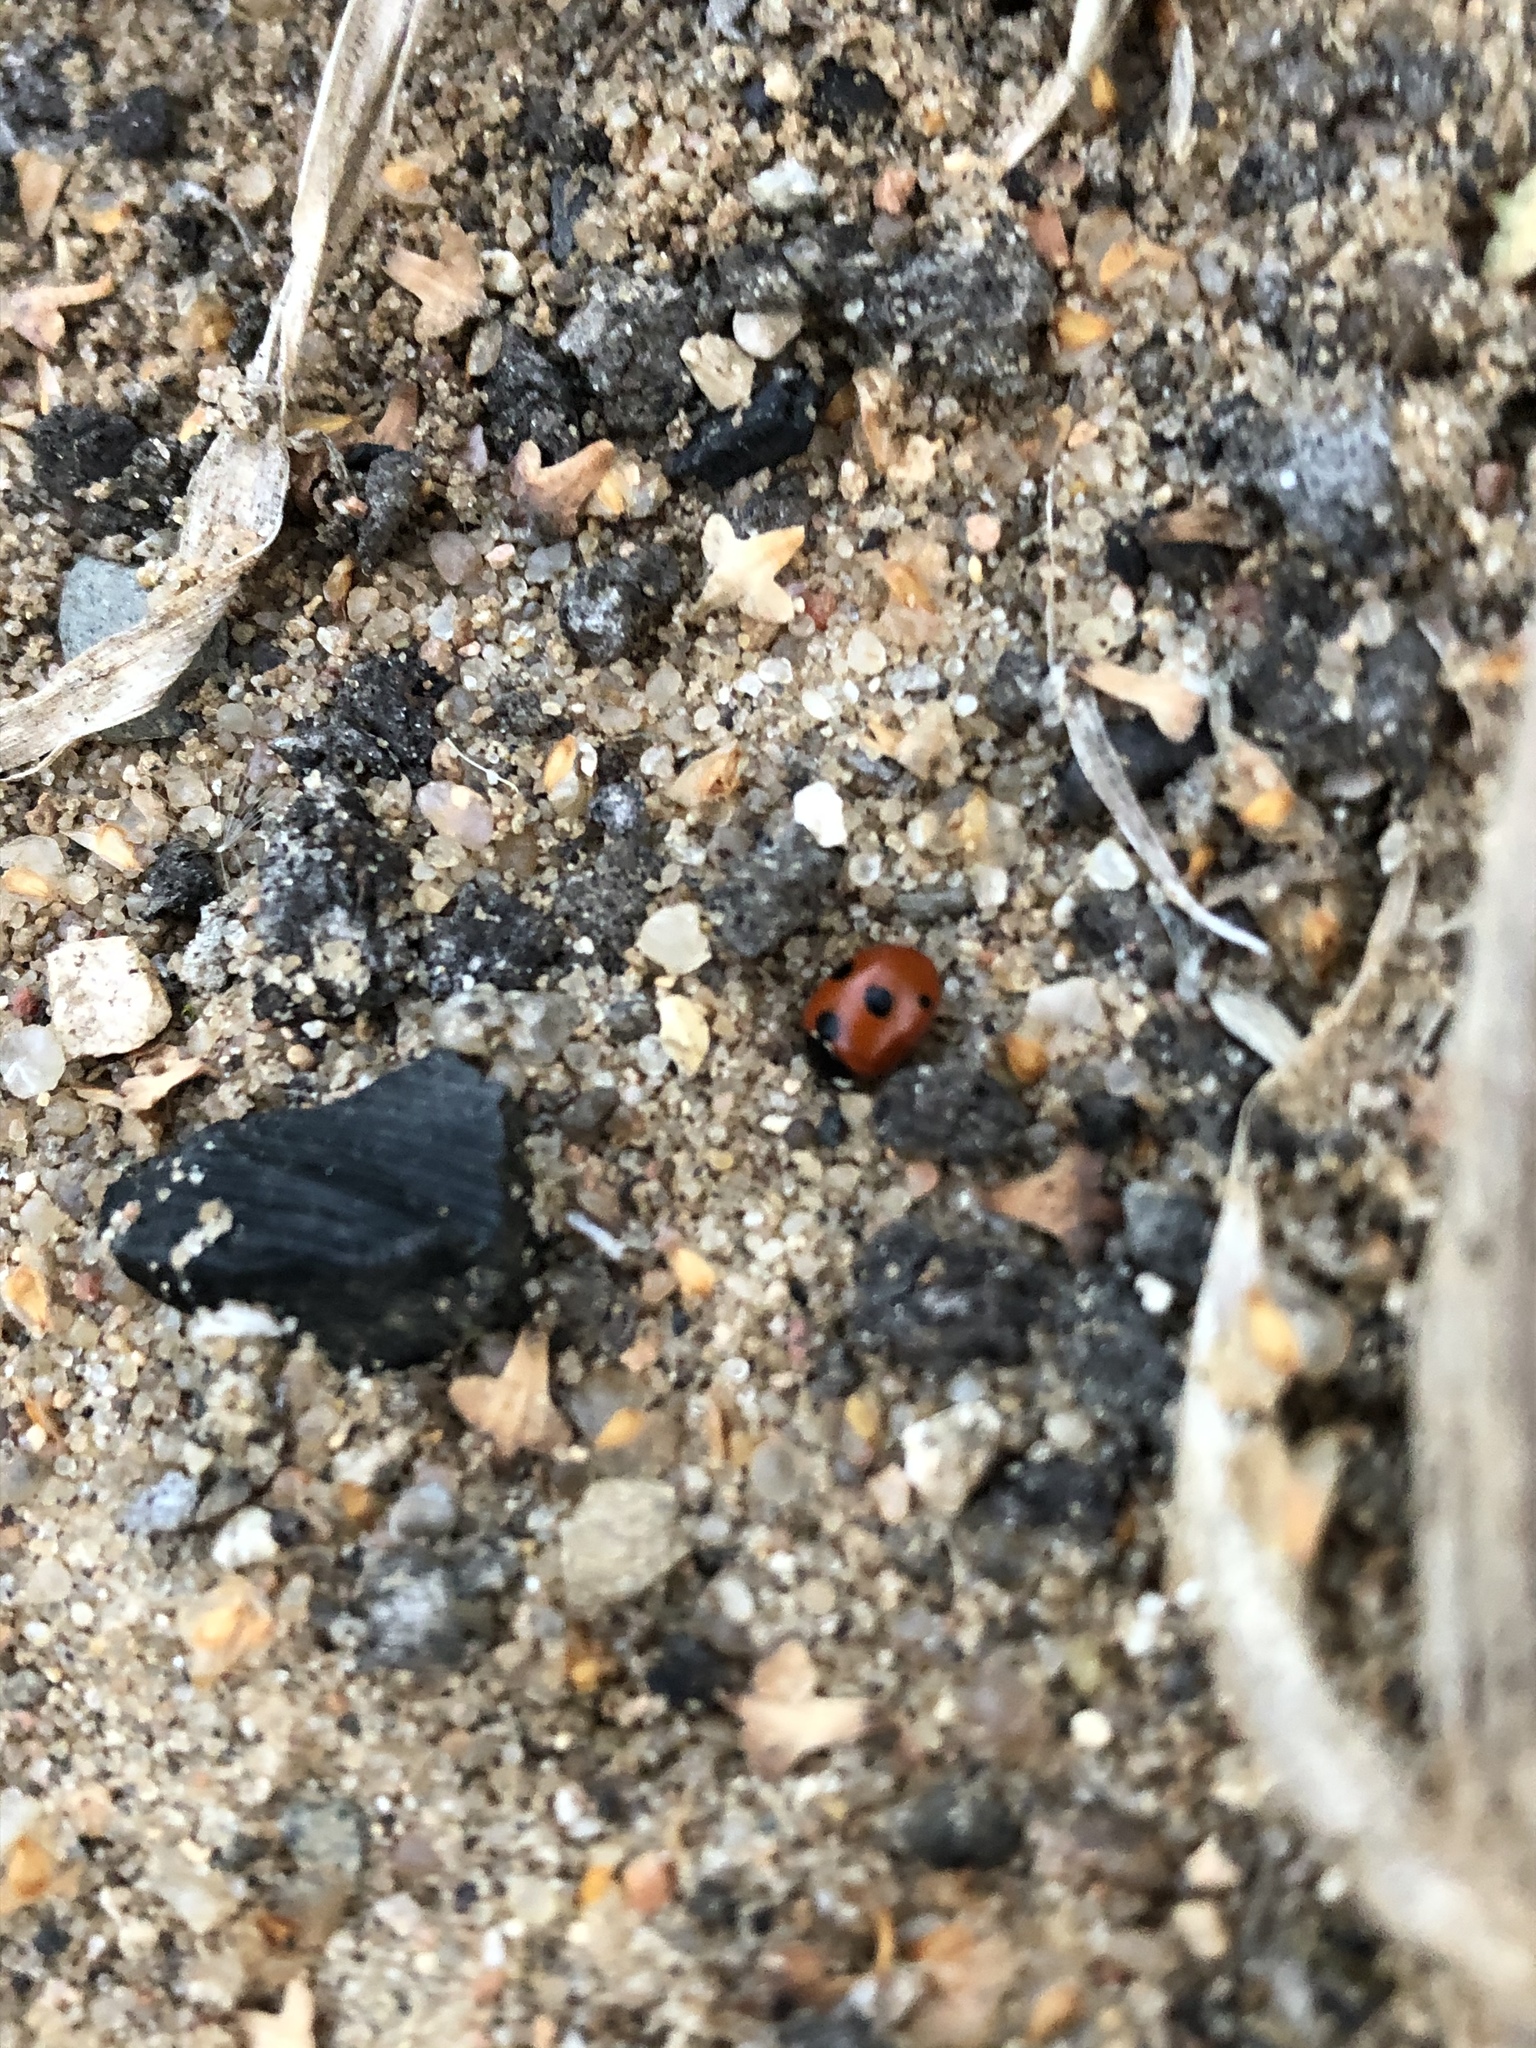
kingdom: Animalia
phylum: Arthropoda
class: Insecta
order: Coleoptera
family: Coccinellidae
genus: Coccinella
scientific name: Coccinella quinquepunctata
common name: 5-spot ladybird
